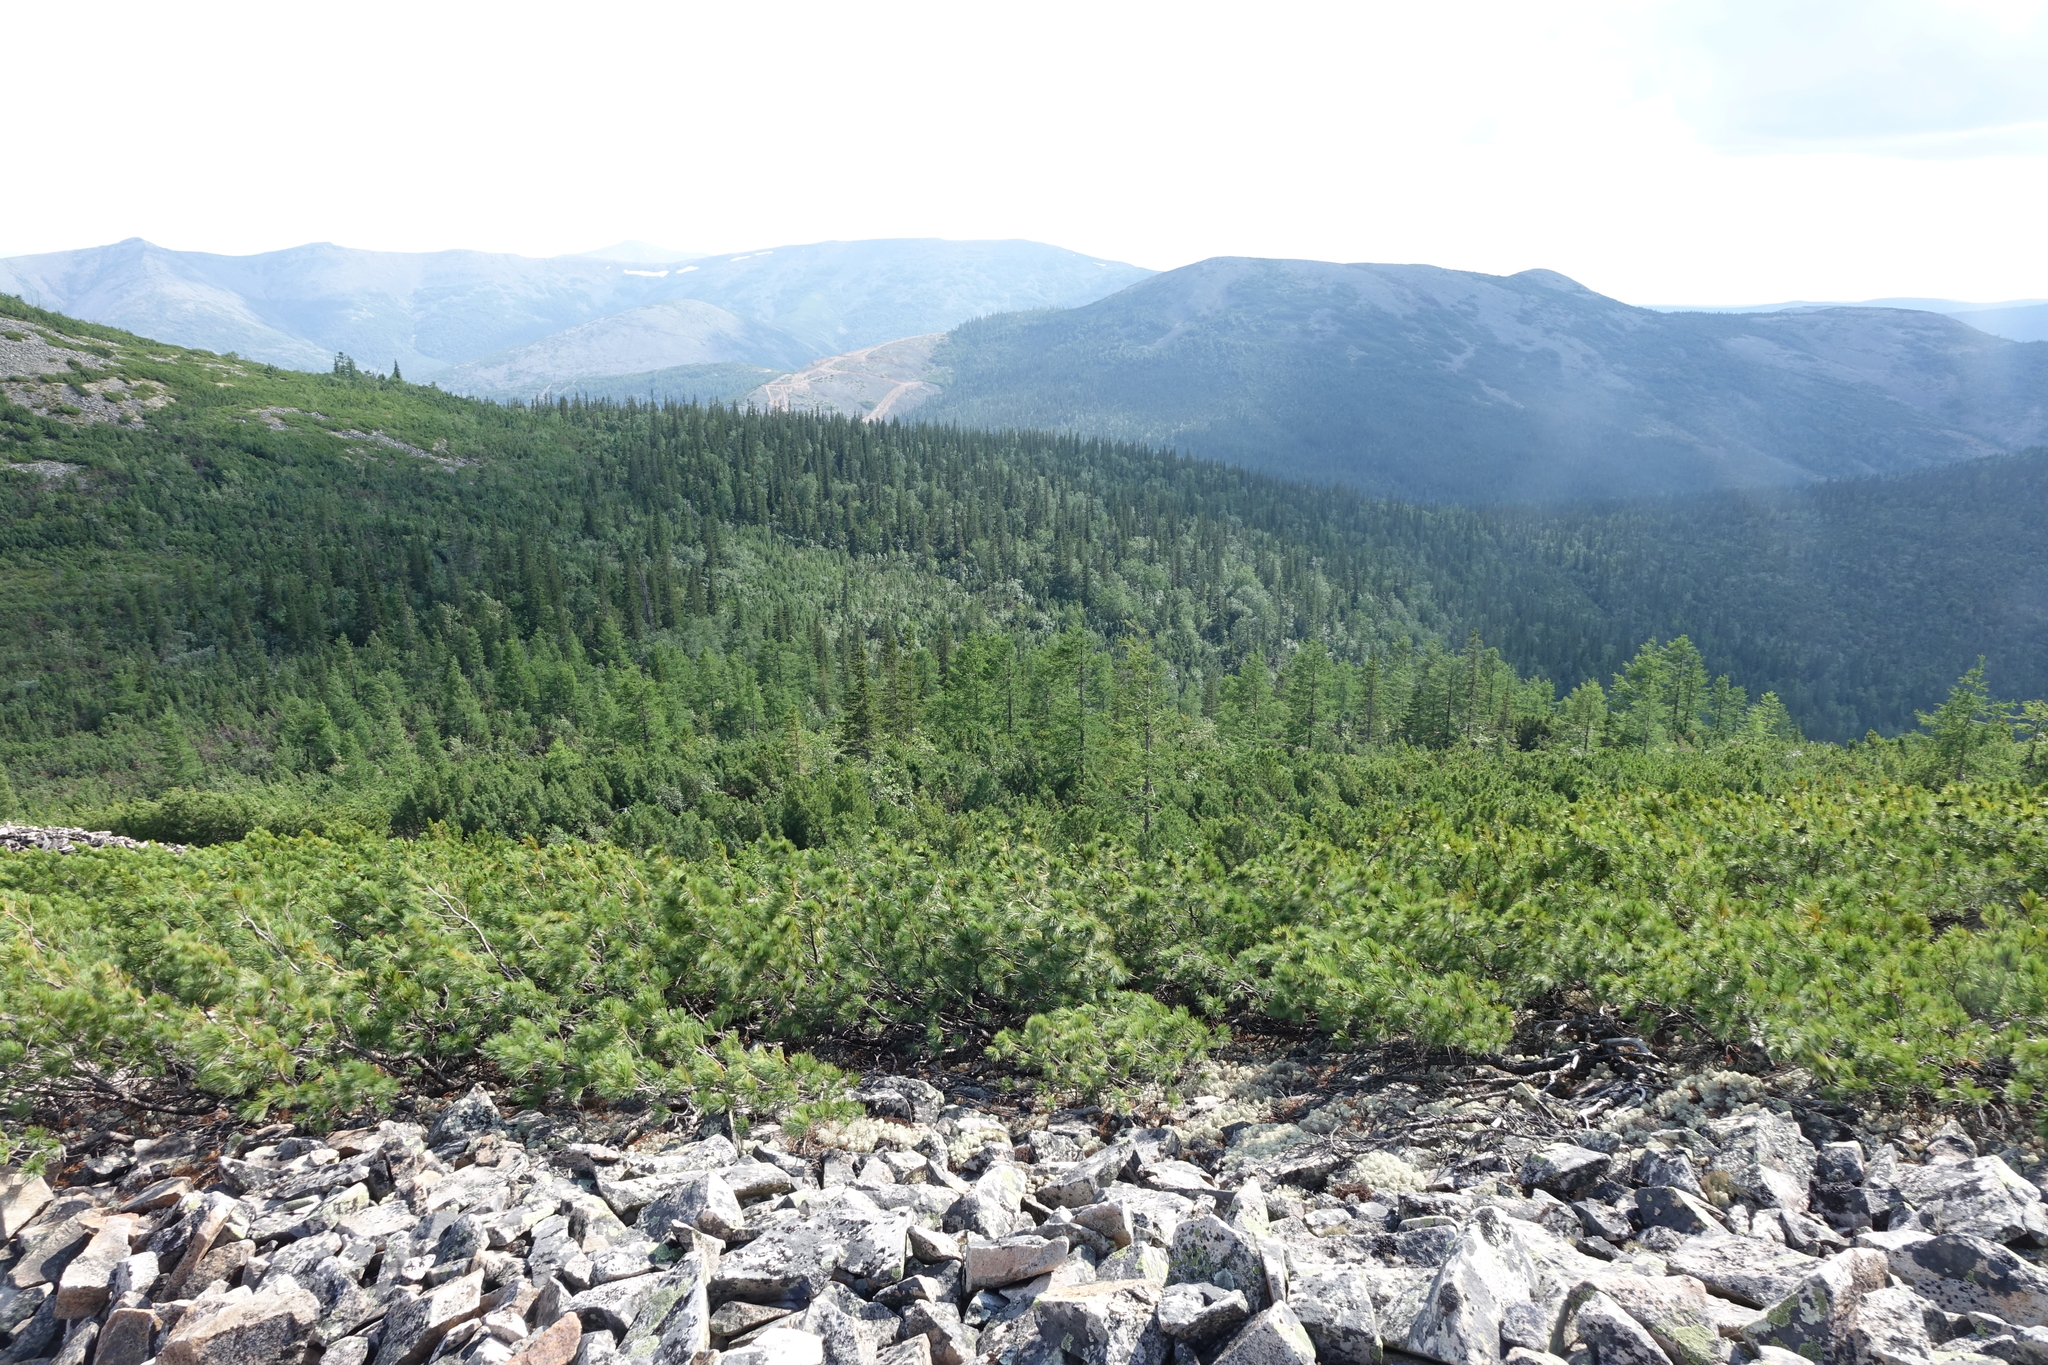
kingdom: Plantae
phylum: Tracheophyta
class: Pinopsida
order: Pinales
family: Pinaceae
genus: Pinus
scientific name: Pinus pumila
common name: Dwarf siberian pine
